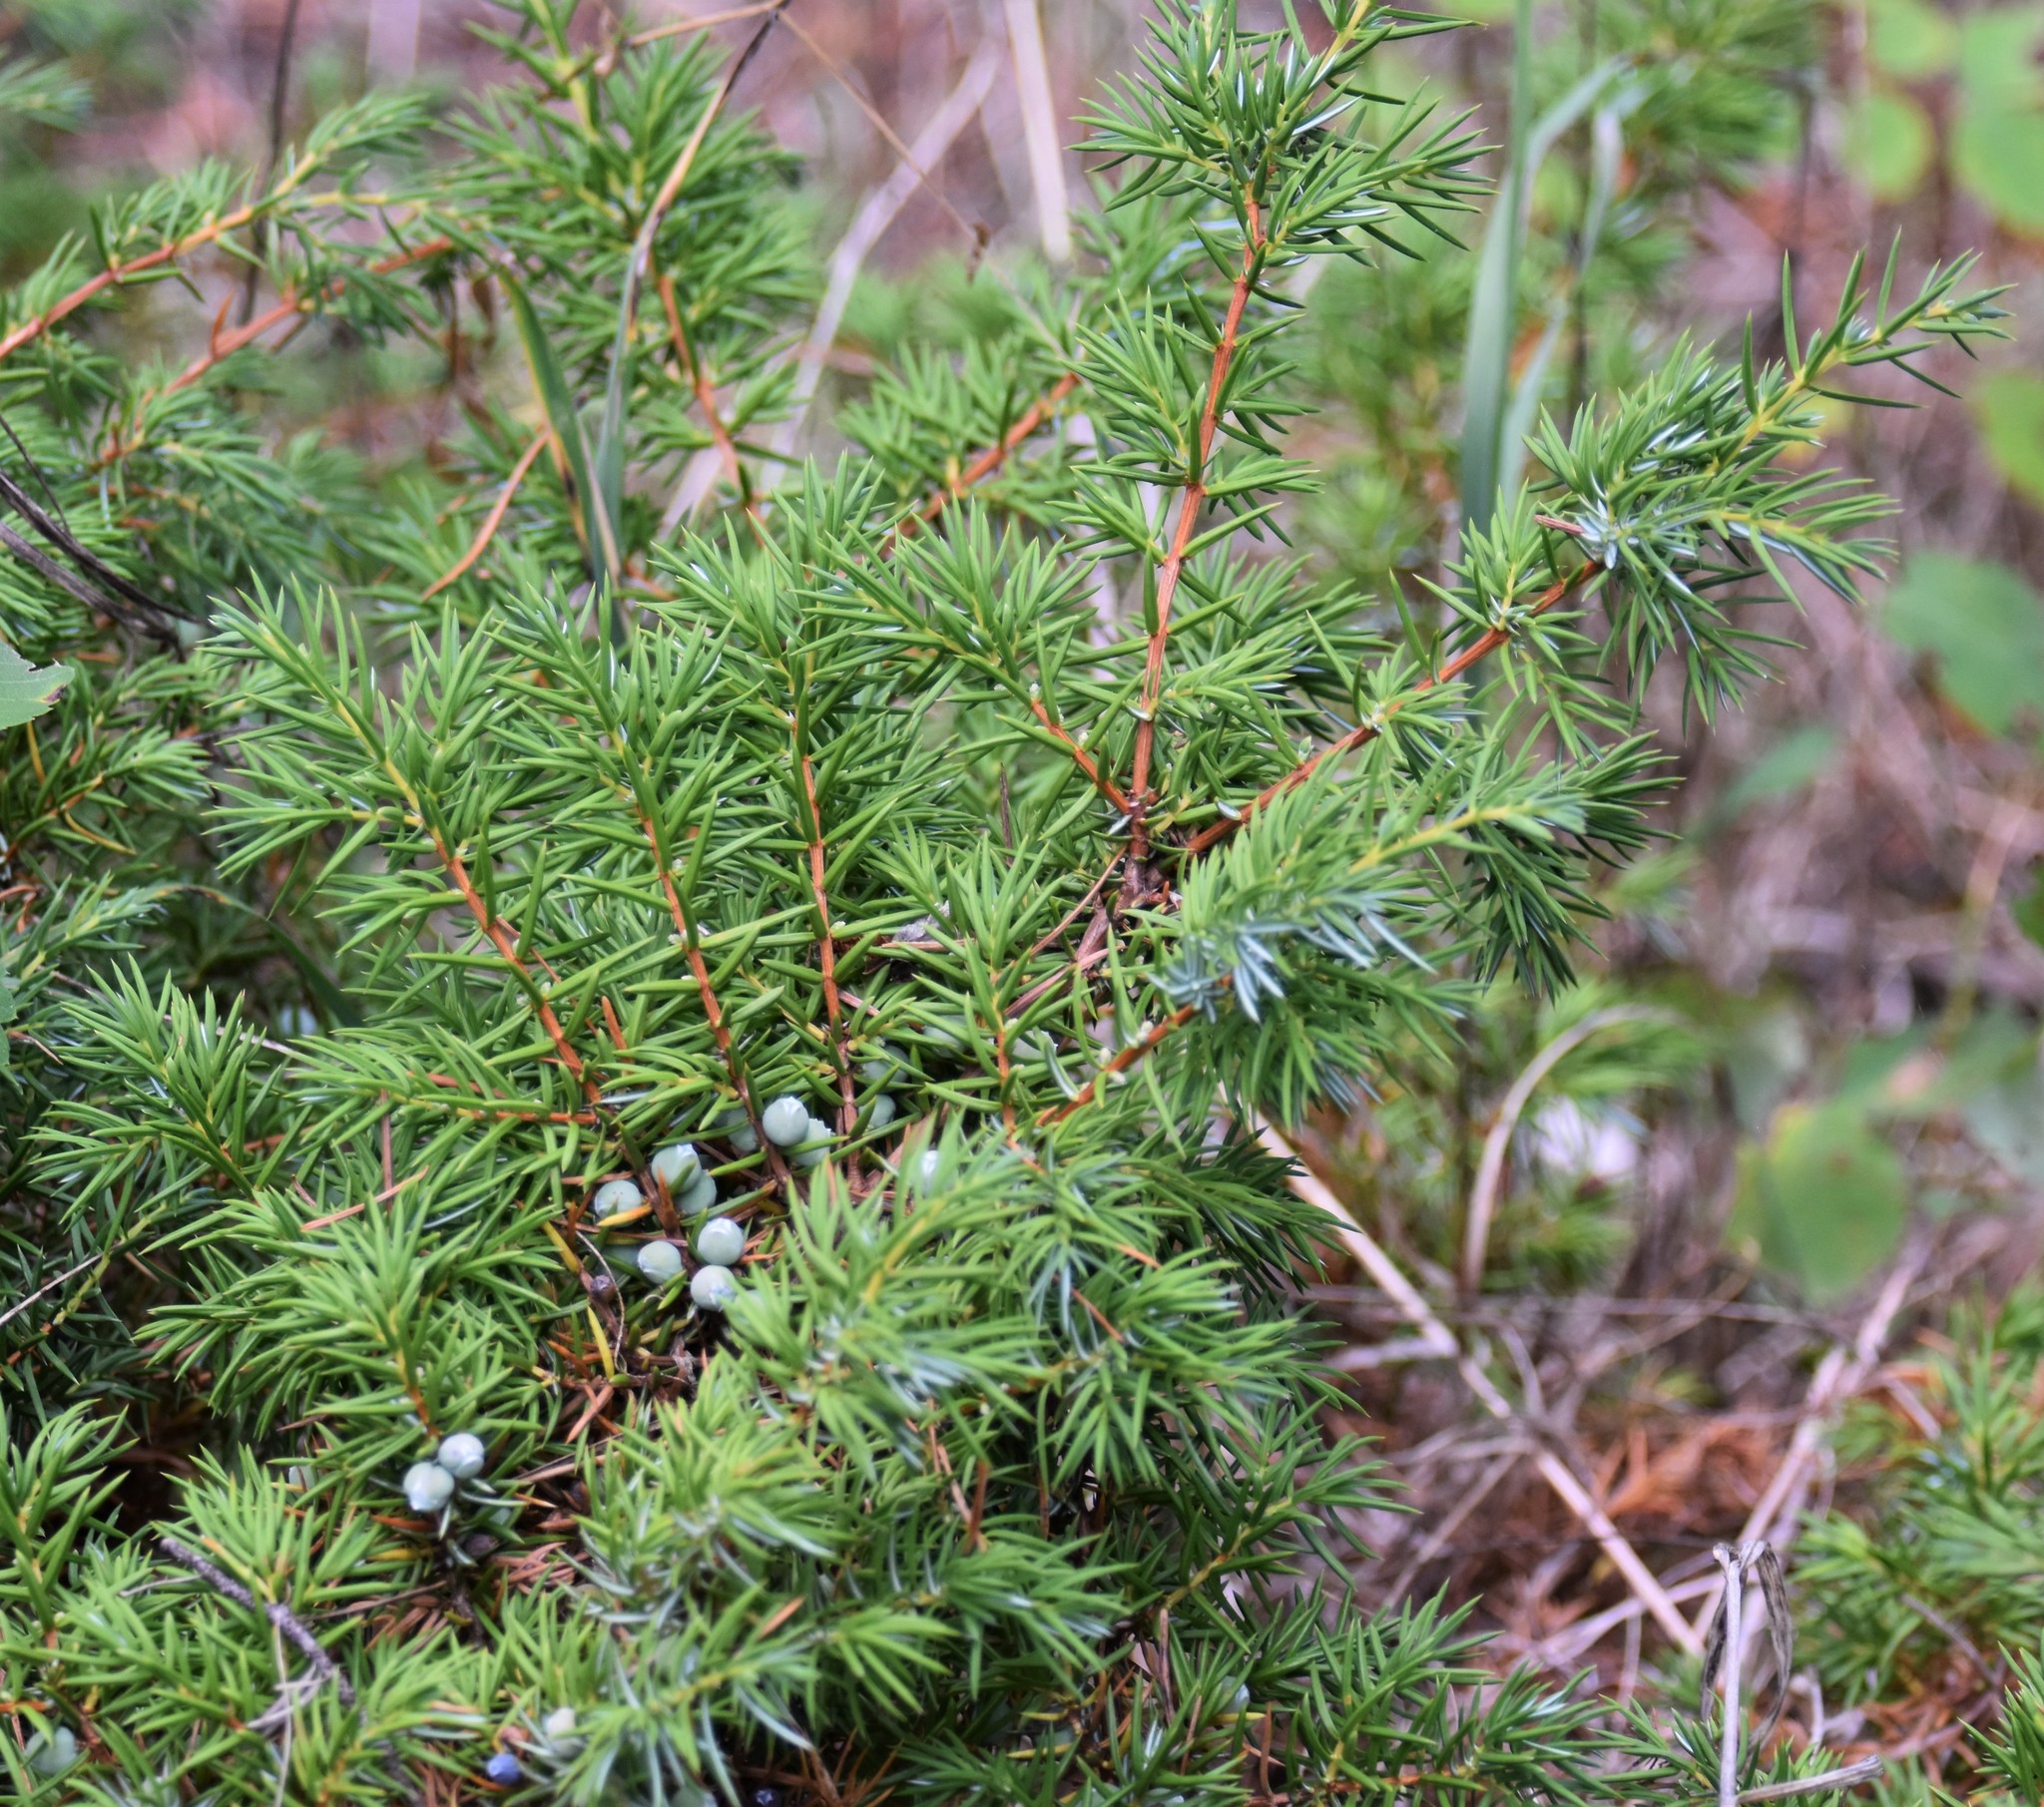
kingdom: Plantae
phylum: Tracheophyta
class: Pinopsida
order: Pinales
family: Cupressaceae
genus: Juniperus
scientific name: Juniperus communis
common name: Common juniper
